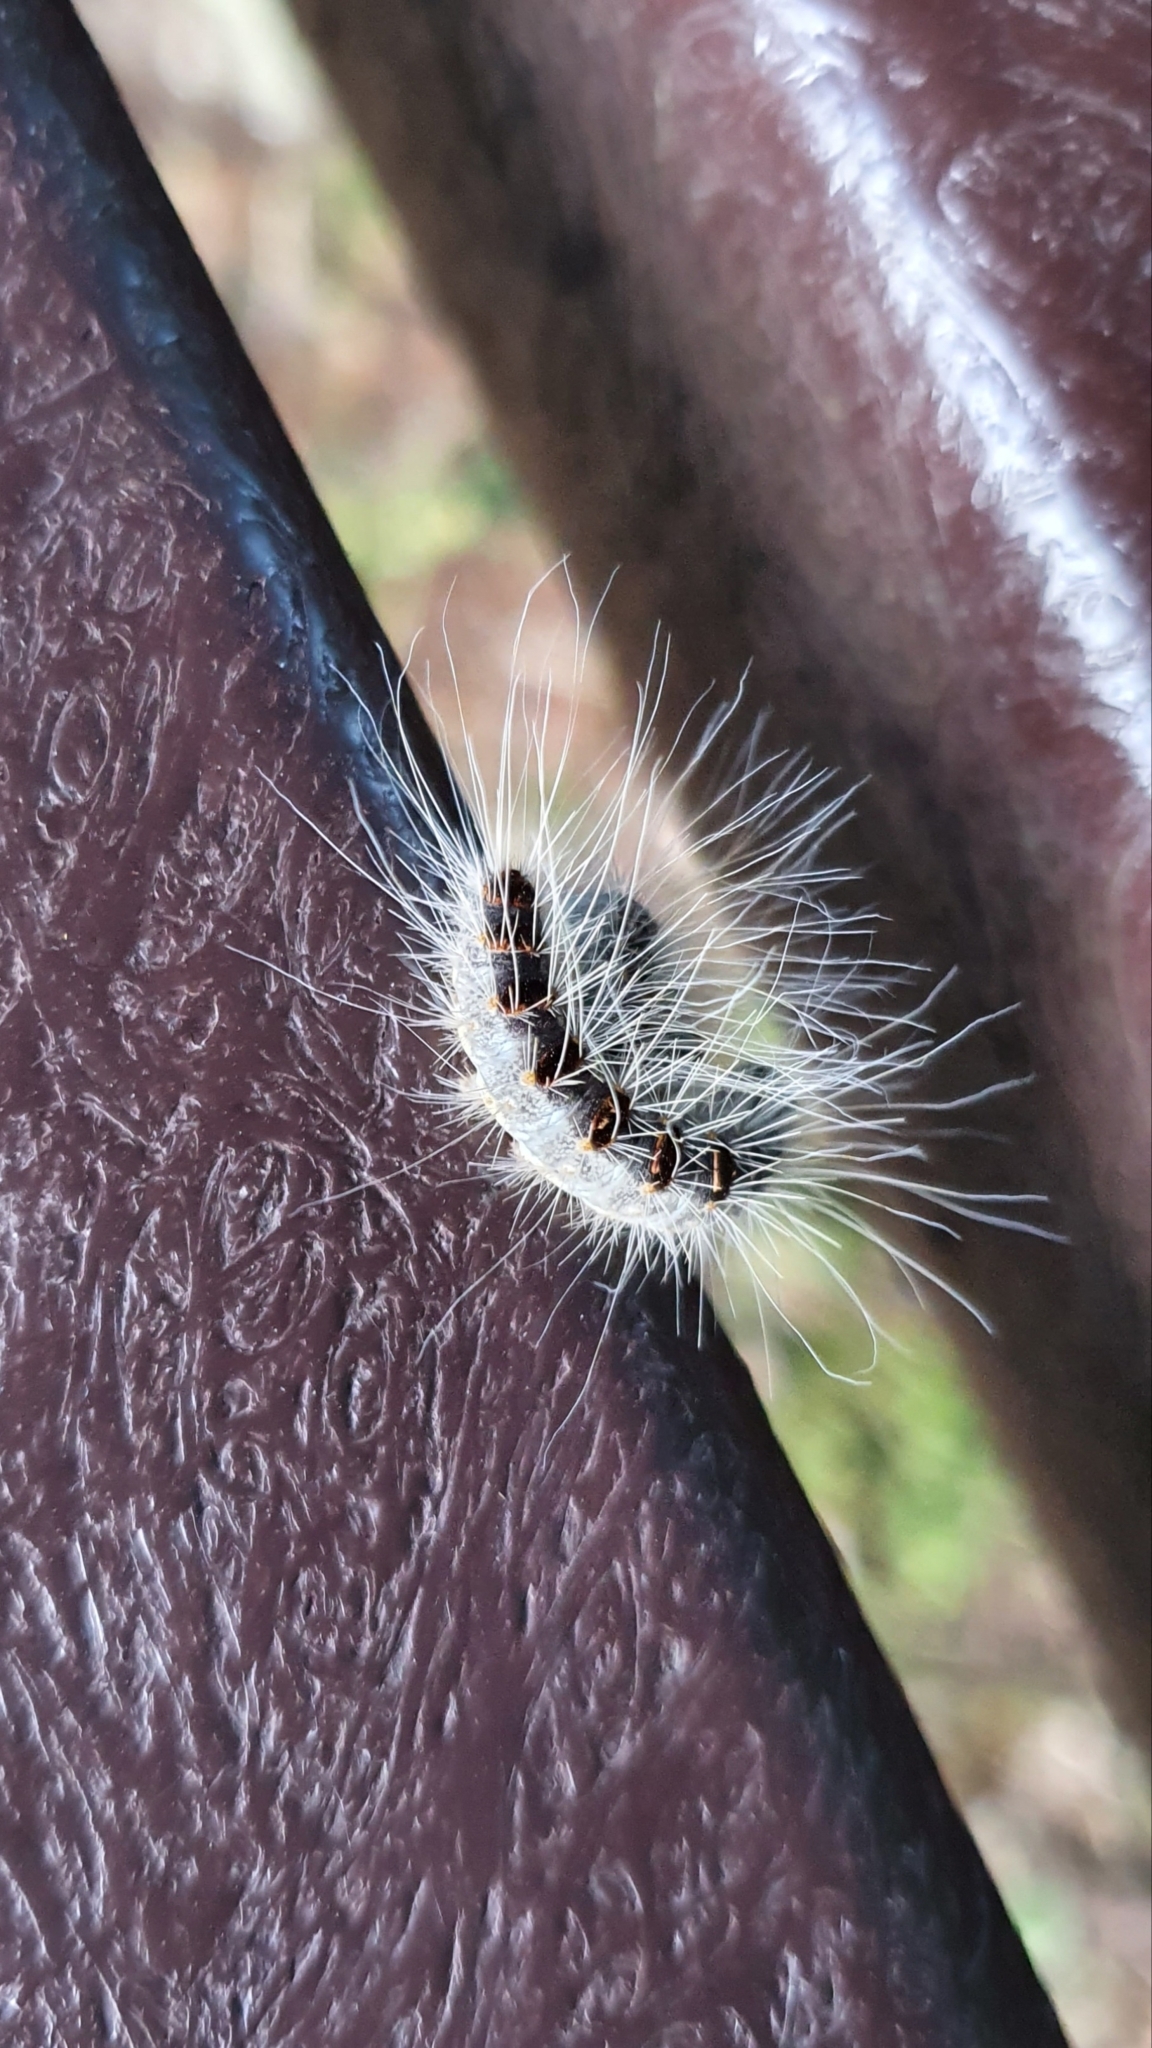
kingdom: Animalia
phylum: Arthropoda
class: Insecta
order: Lepidoptera
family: Notodontidae
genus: Thaumetopoea
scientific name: Thaumetopoea processionea
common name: Oak processionea
